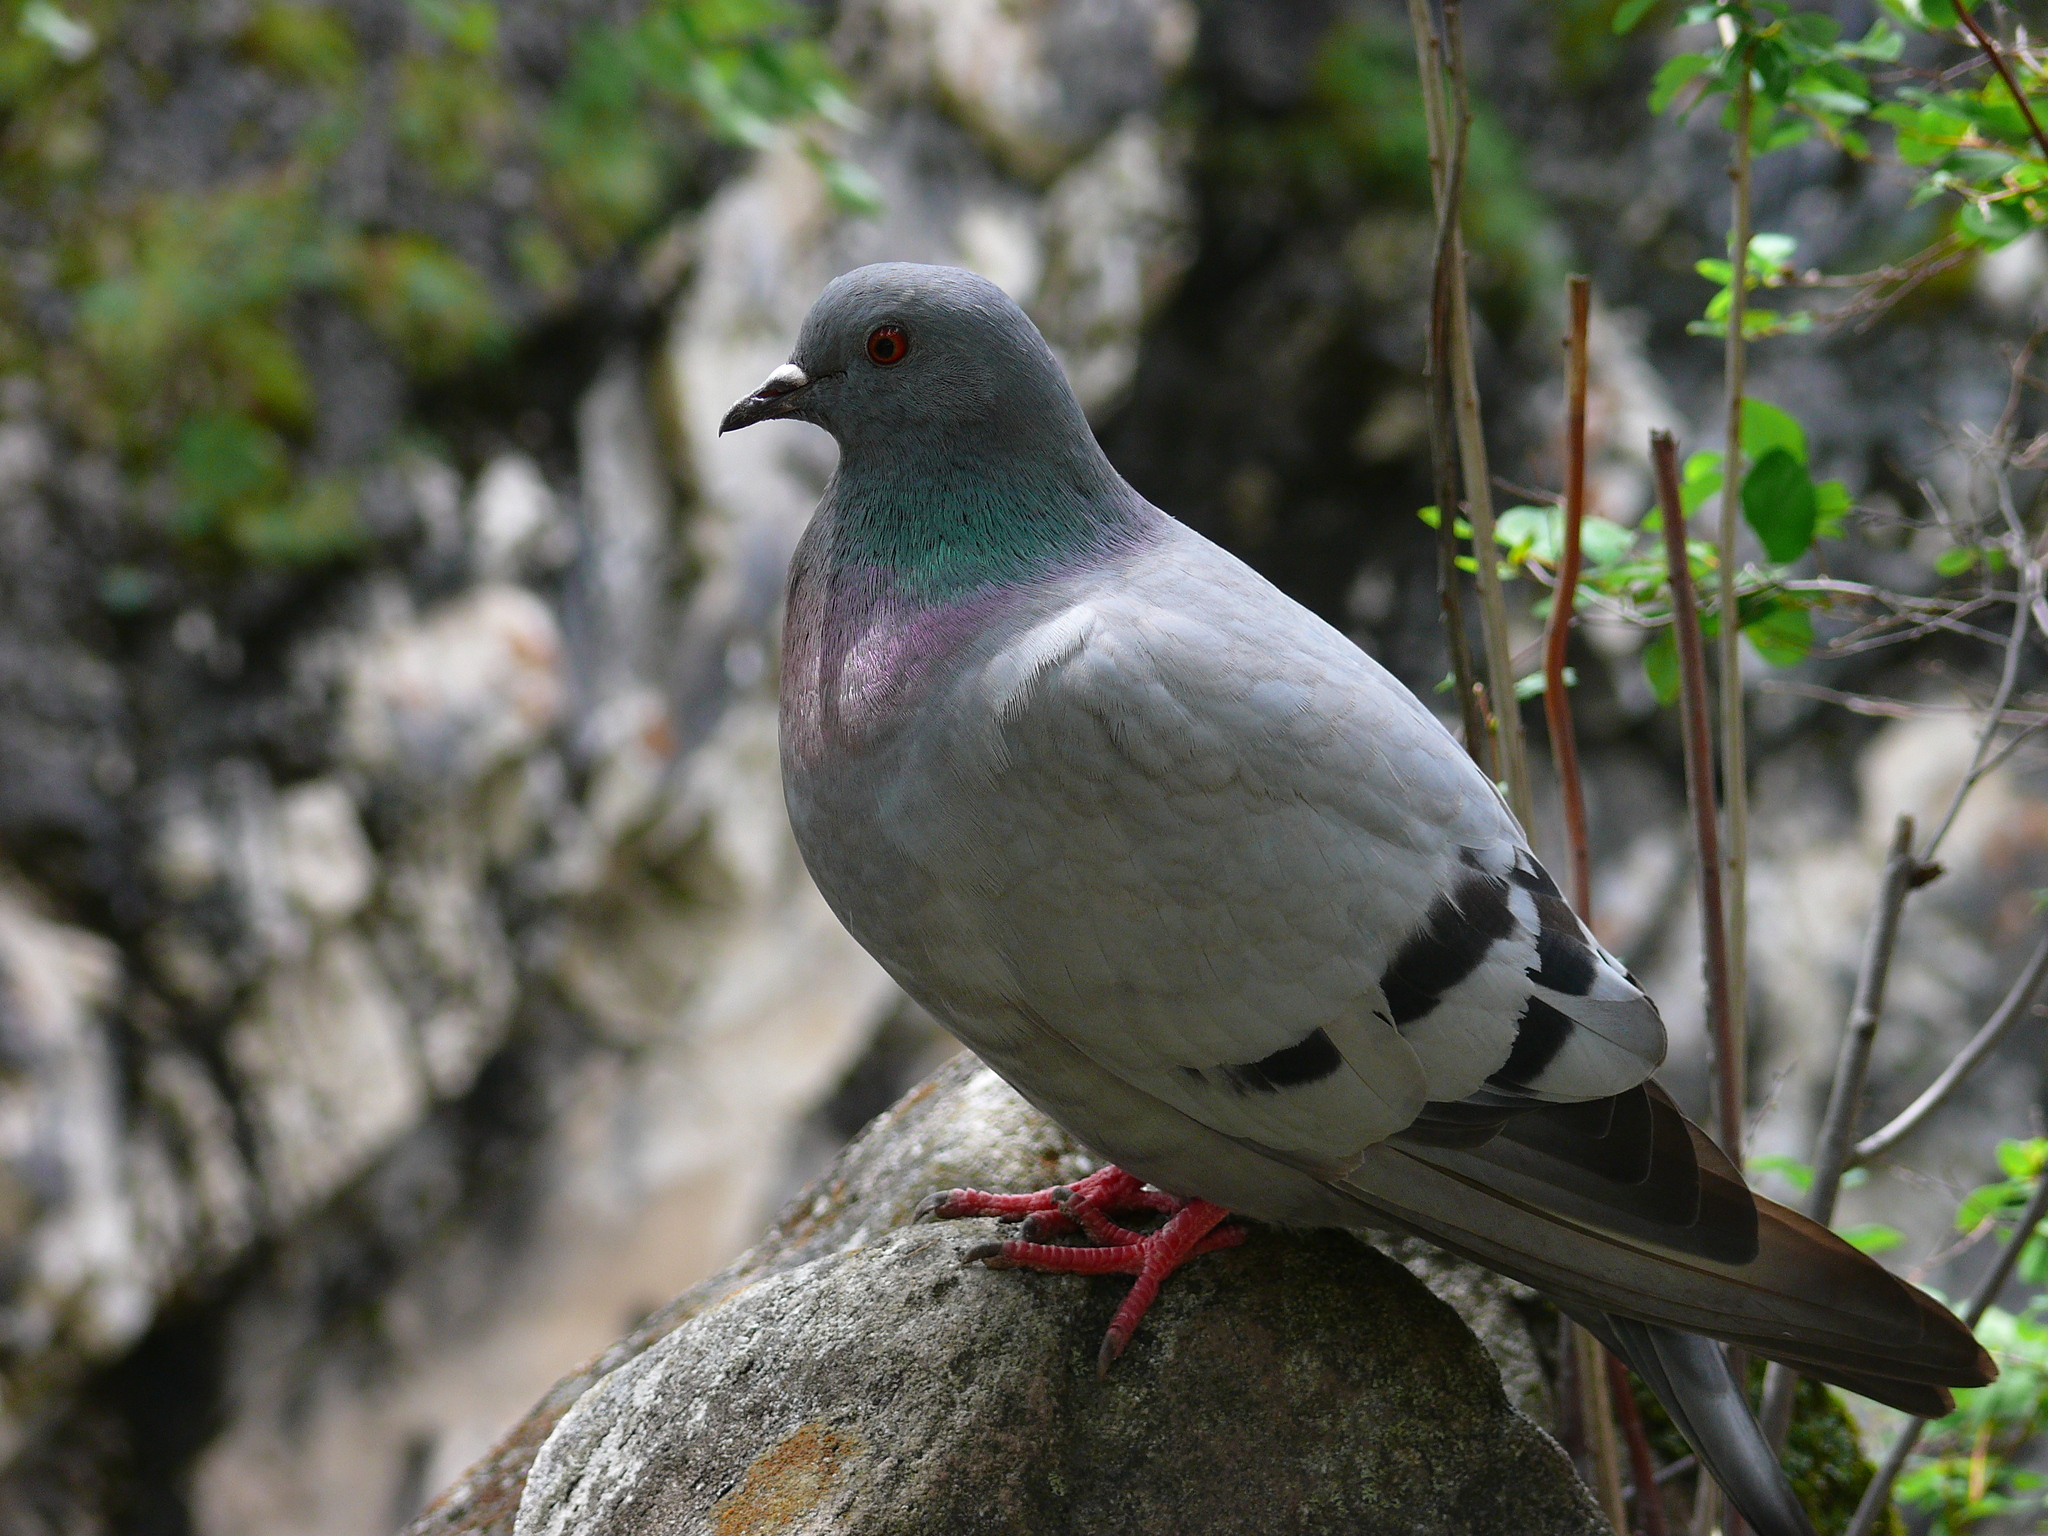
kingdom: Animalia
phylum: Chordata
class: Aves
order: Columbiformes
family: Columbidae
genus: Columba
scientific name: Columba rupestris
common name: Hill pigeon
